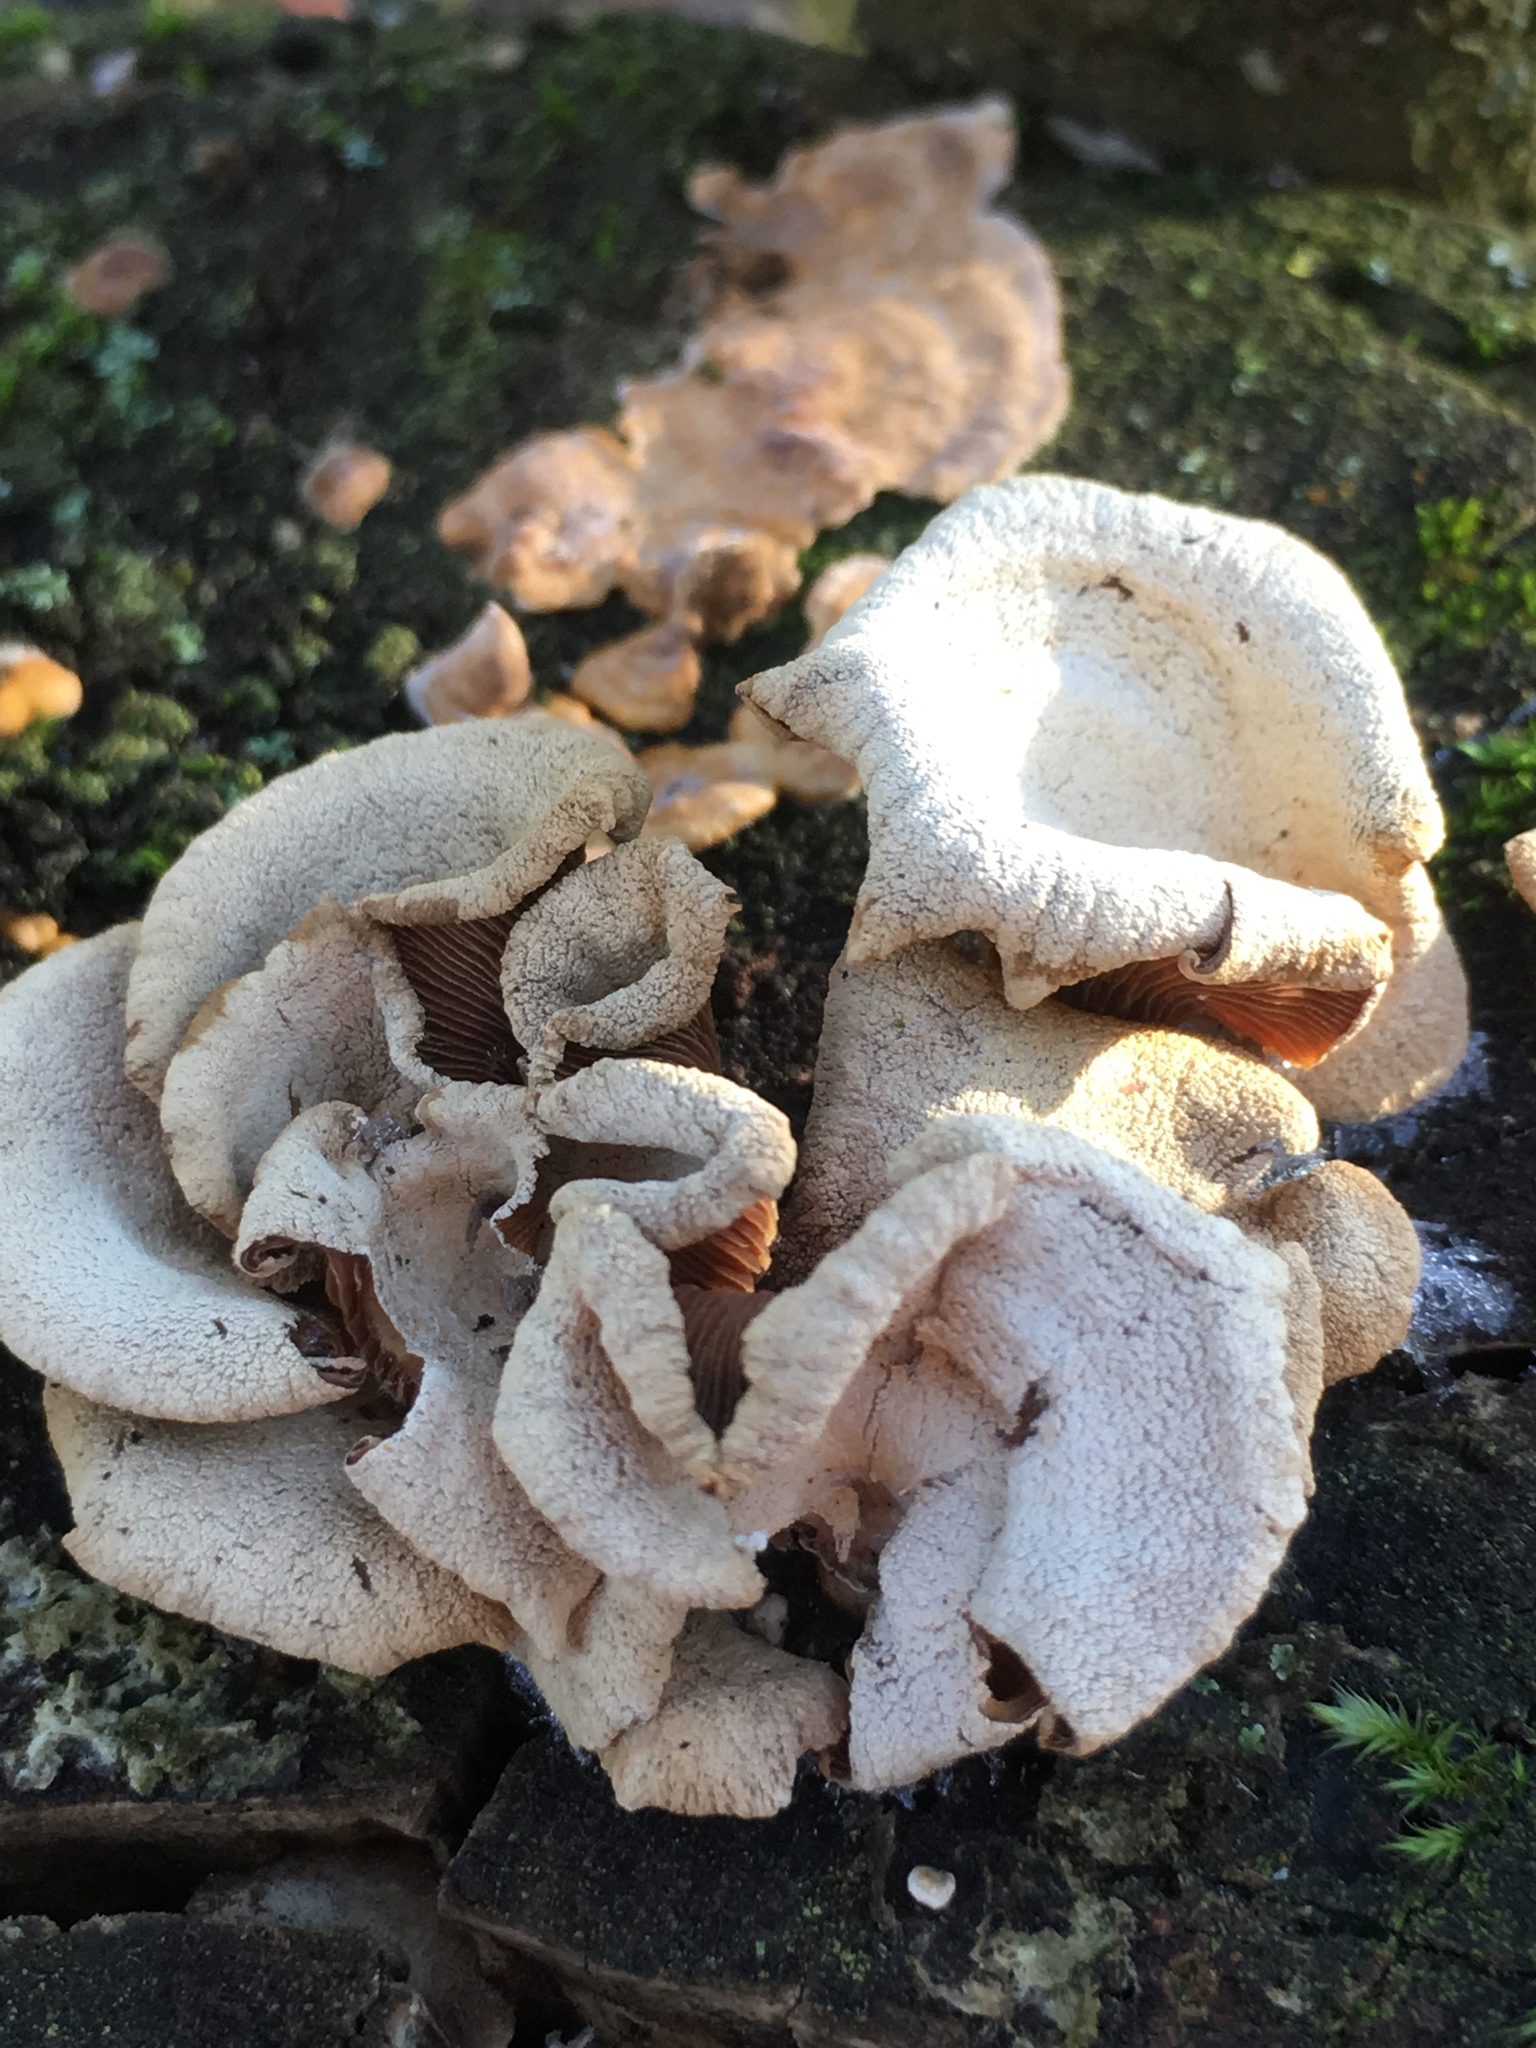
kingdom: Fungi
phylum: Basidiomycota
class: Agaricomycetes
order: Agaricales
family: Mycenaceae
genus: Panellus
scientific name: Panellus stipticus
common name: Bitter oysterling
